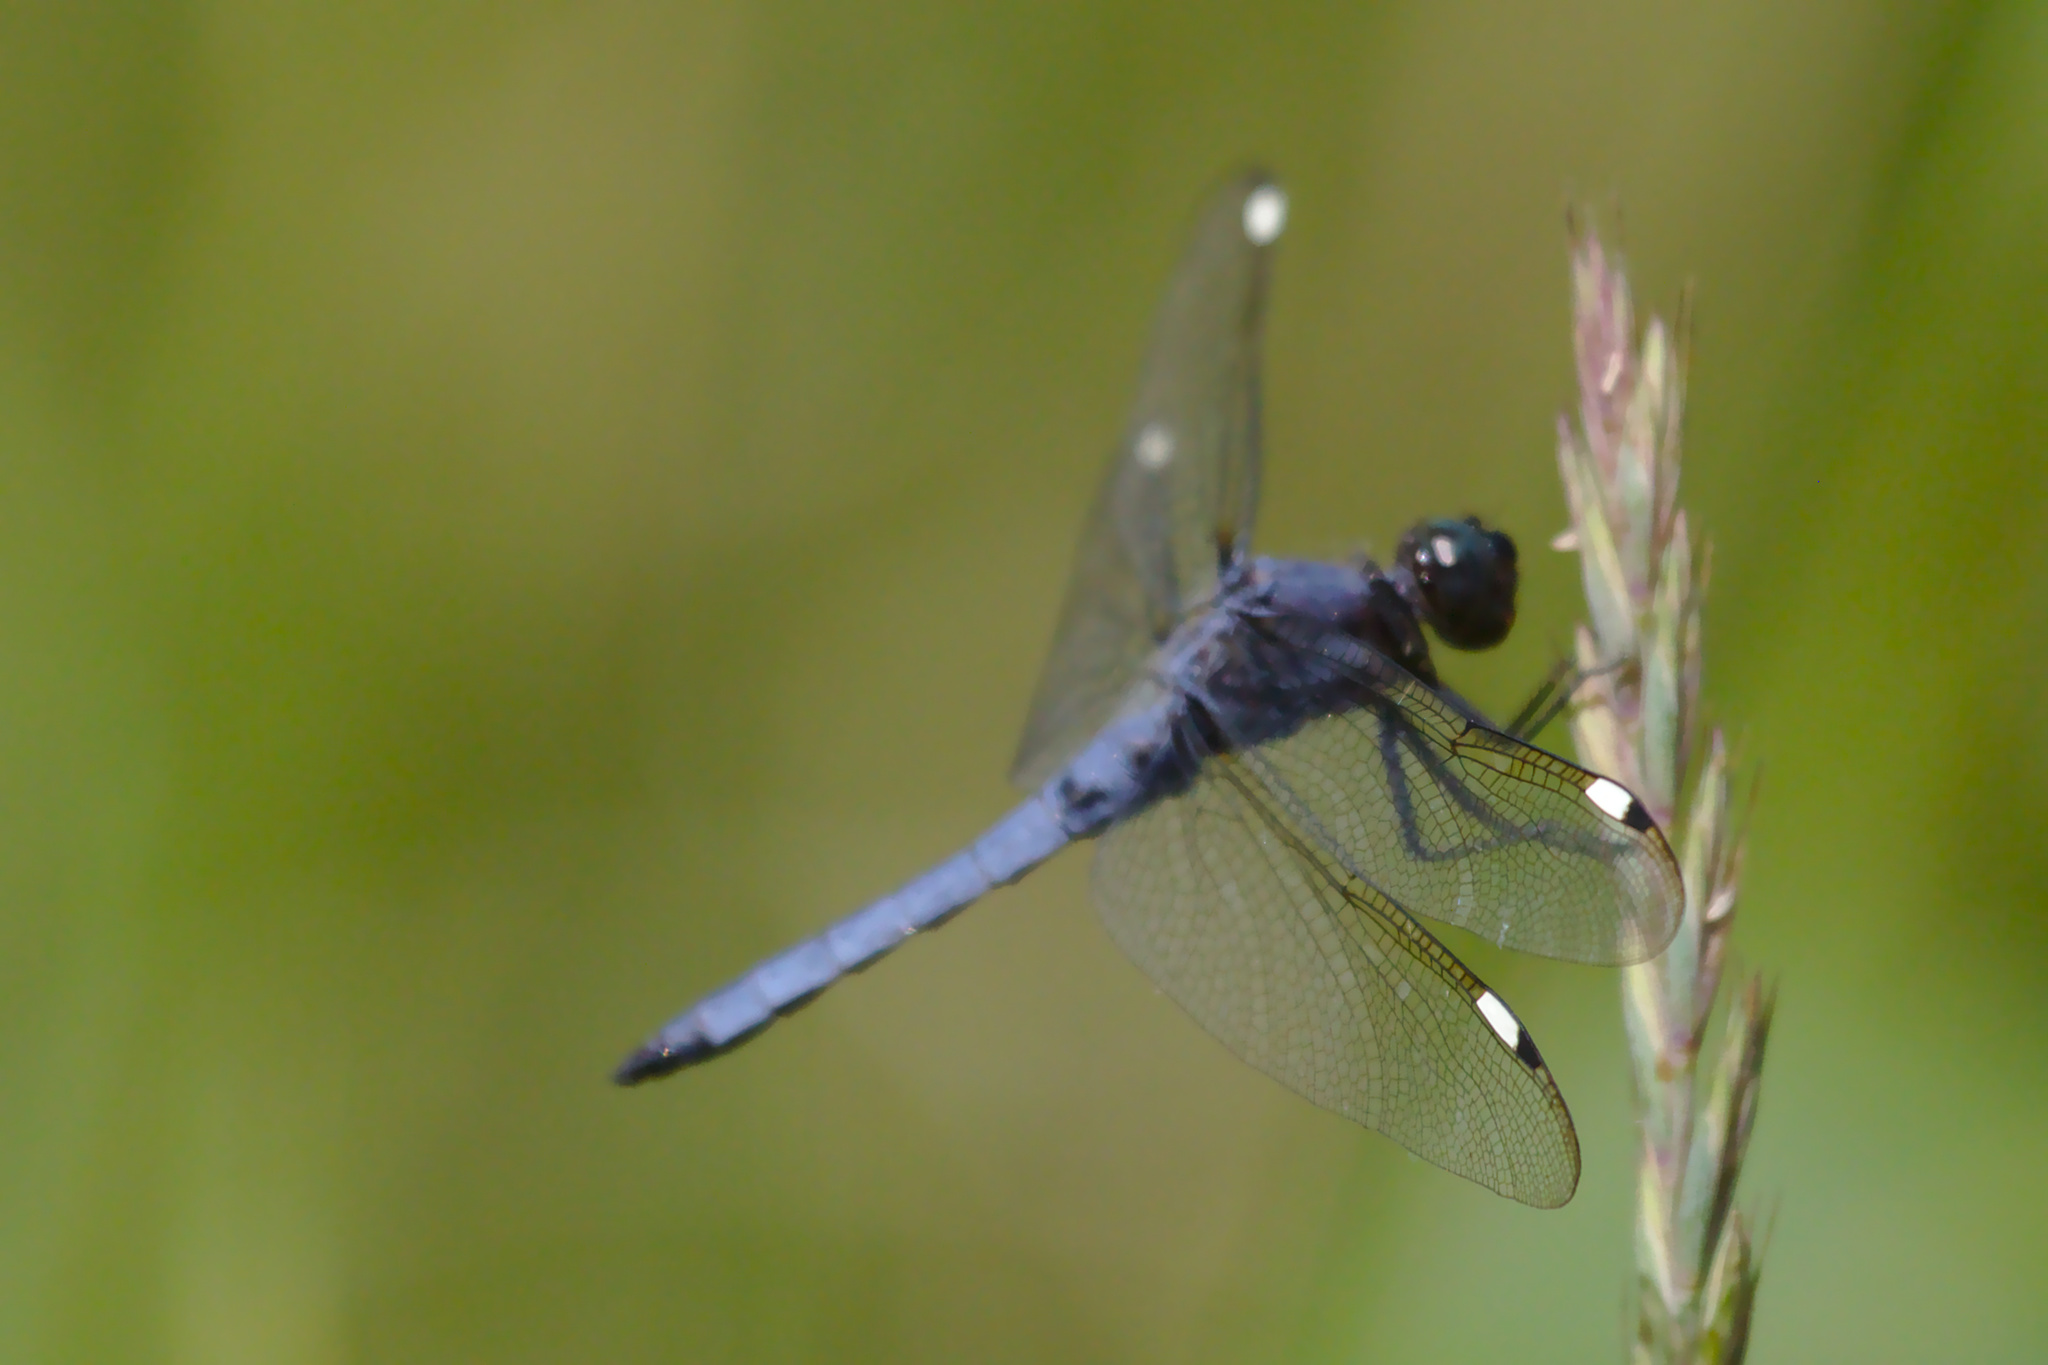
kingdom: Animalia
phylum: Arthropoda
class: Insecta
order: Odonata
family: Libellulidae
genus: Libellula
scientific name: Libellula cyanea
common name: Spangled skimmer
